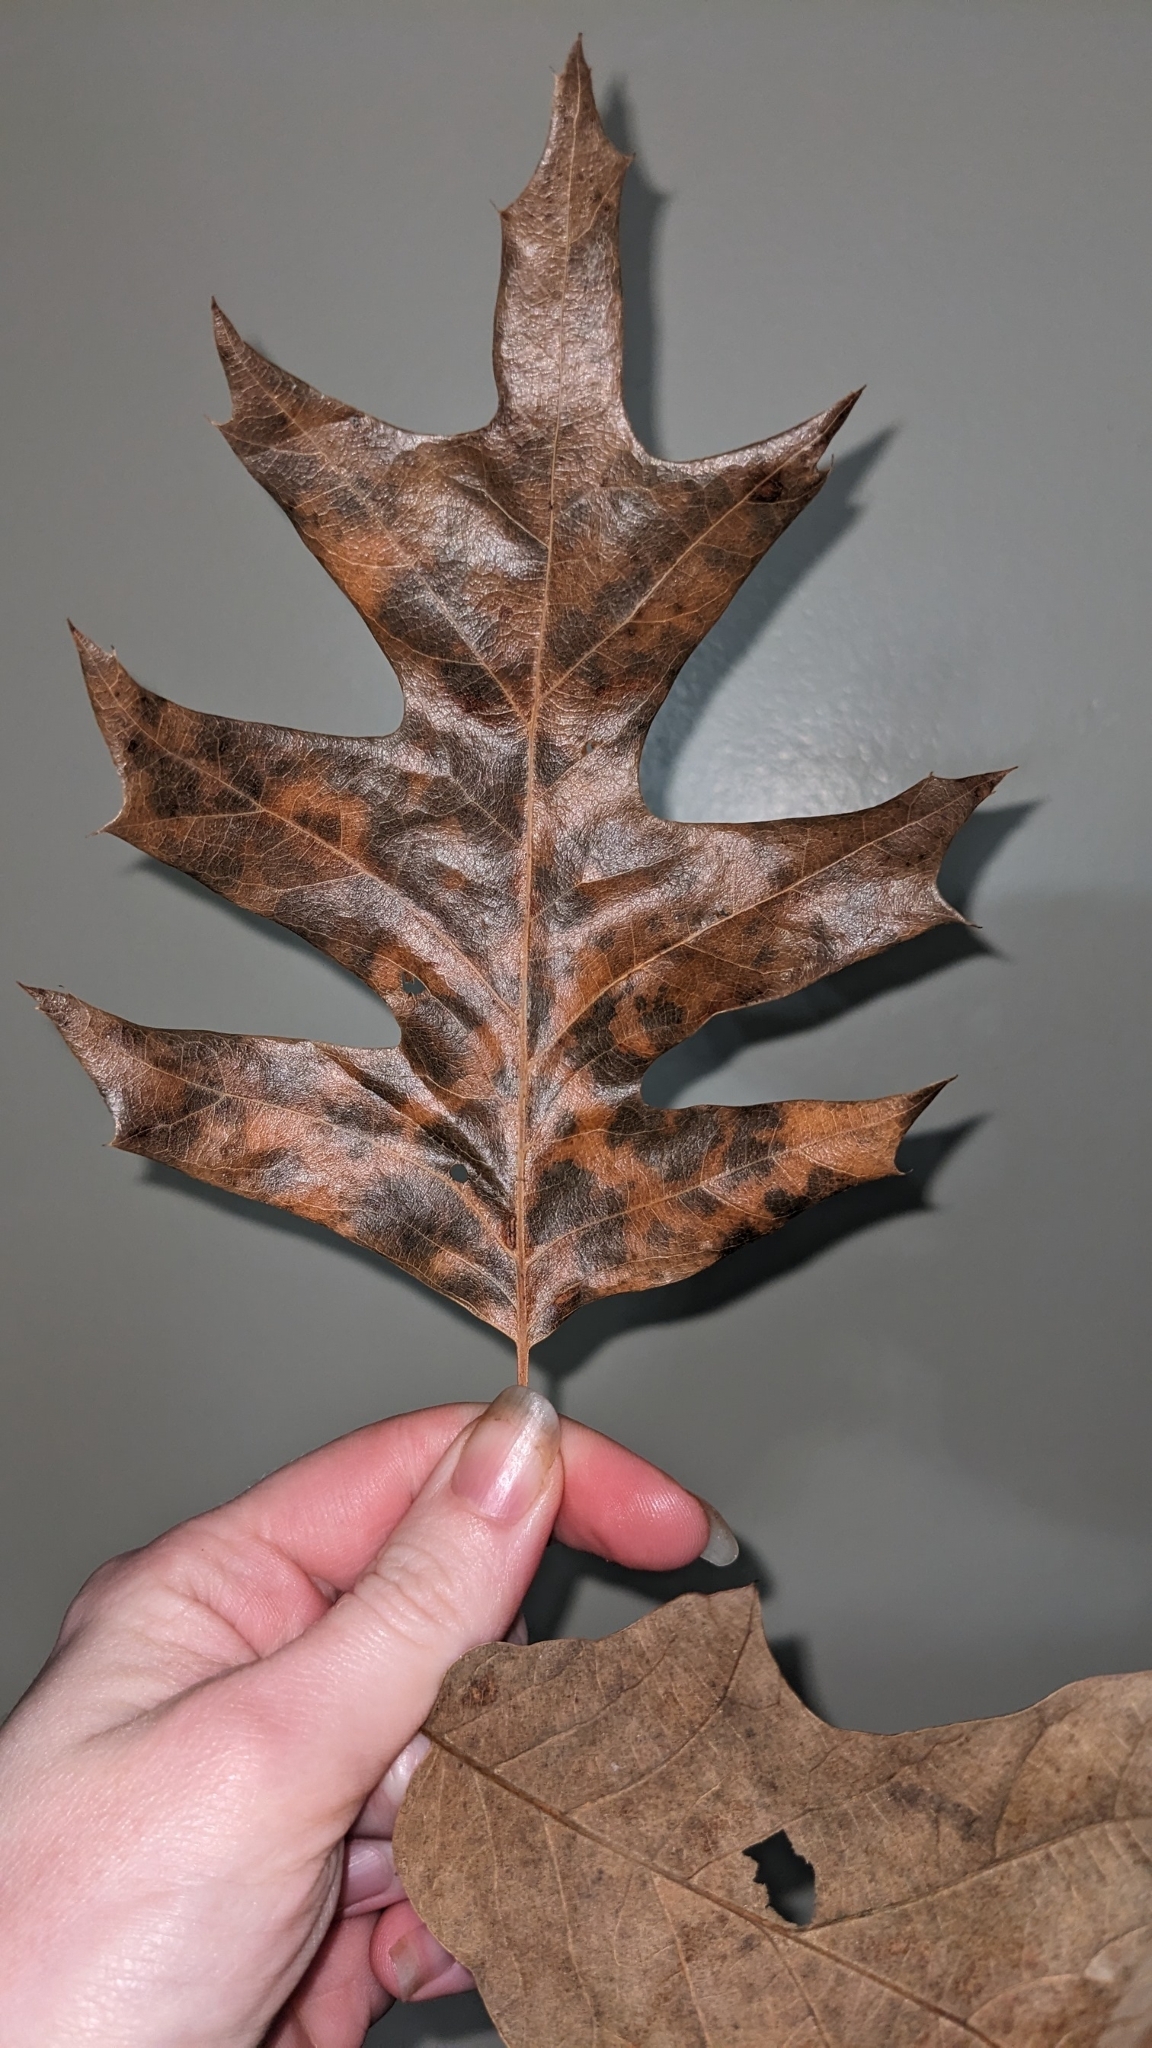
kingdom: Plantae
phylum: Tracheophyta
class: Magnoliopsida
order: Fagales
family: Fagaceae
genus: Quercus
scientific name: Quercus pagoda
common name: Cherrybark oak
